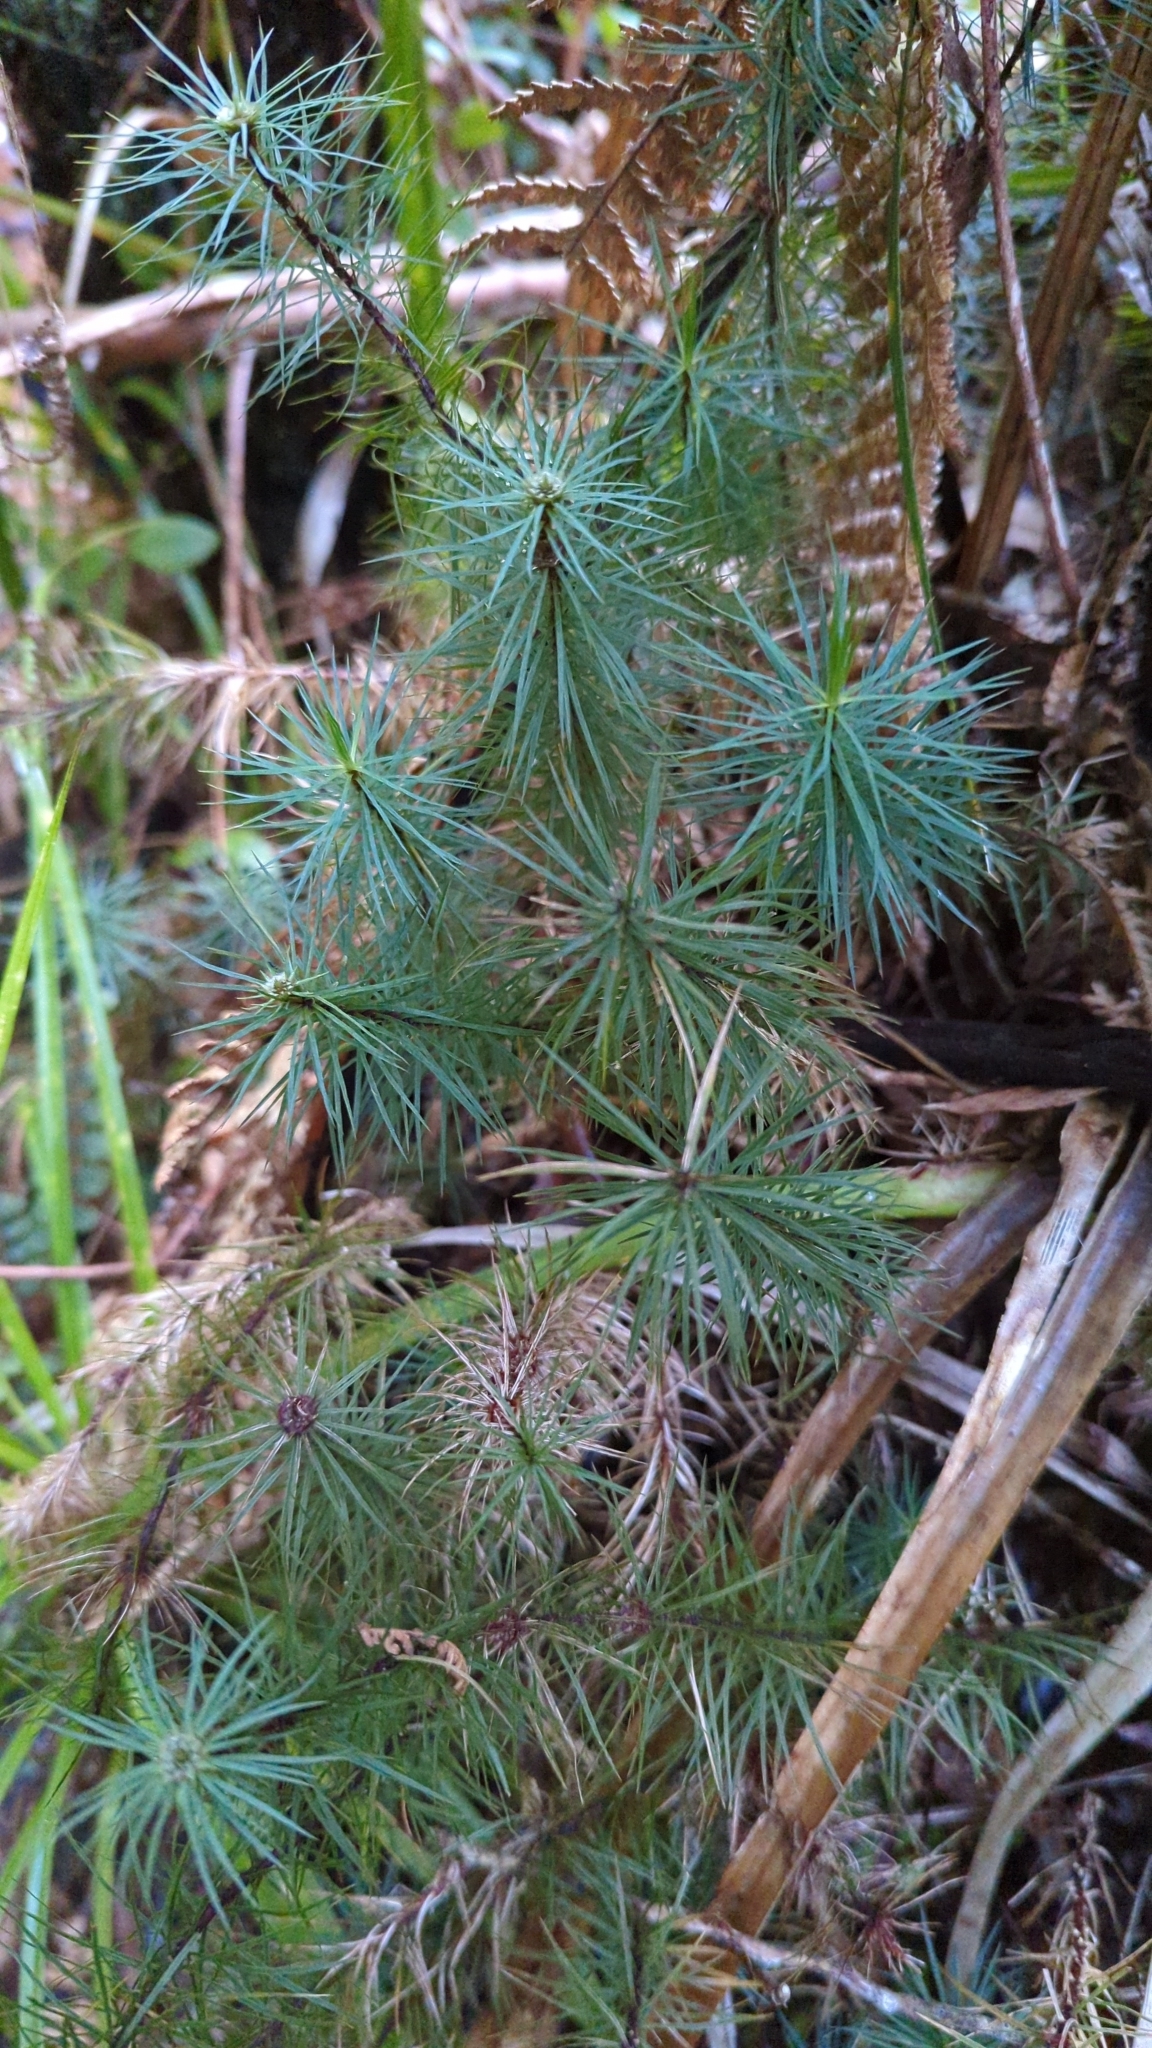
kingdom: Plantae
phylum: Bryophyta
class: Polytrichopsida
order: Polytrichales
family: Polytrichaceae
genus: Dawsonia
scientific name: Dawsonia superba
